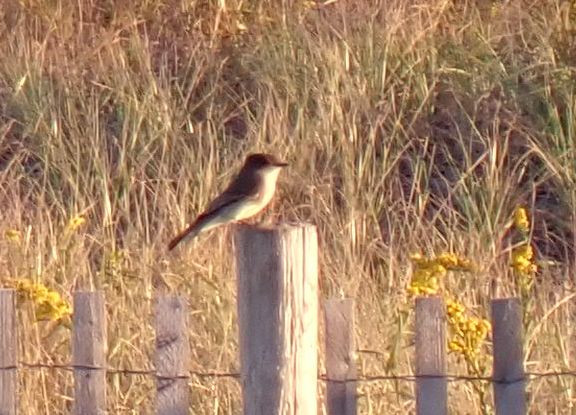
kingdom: Animalia
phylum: Chordata
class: Aves
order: Passeriformes
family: Tyrannidae
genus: Sayornis
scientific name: Sayornis phoebe
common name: Eastern phoebe
